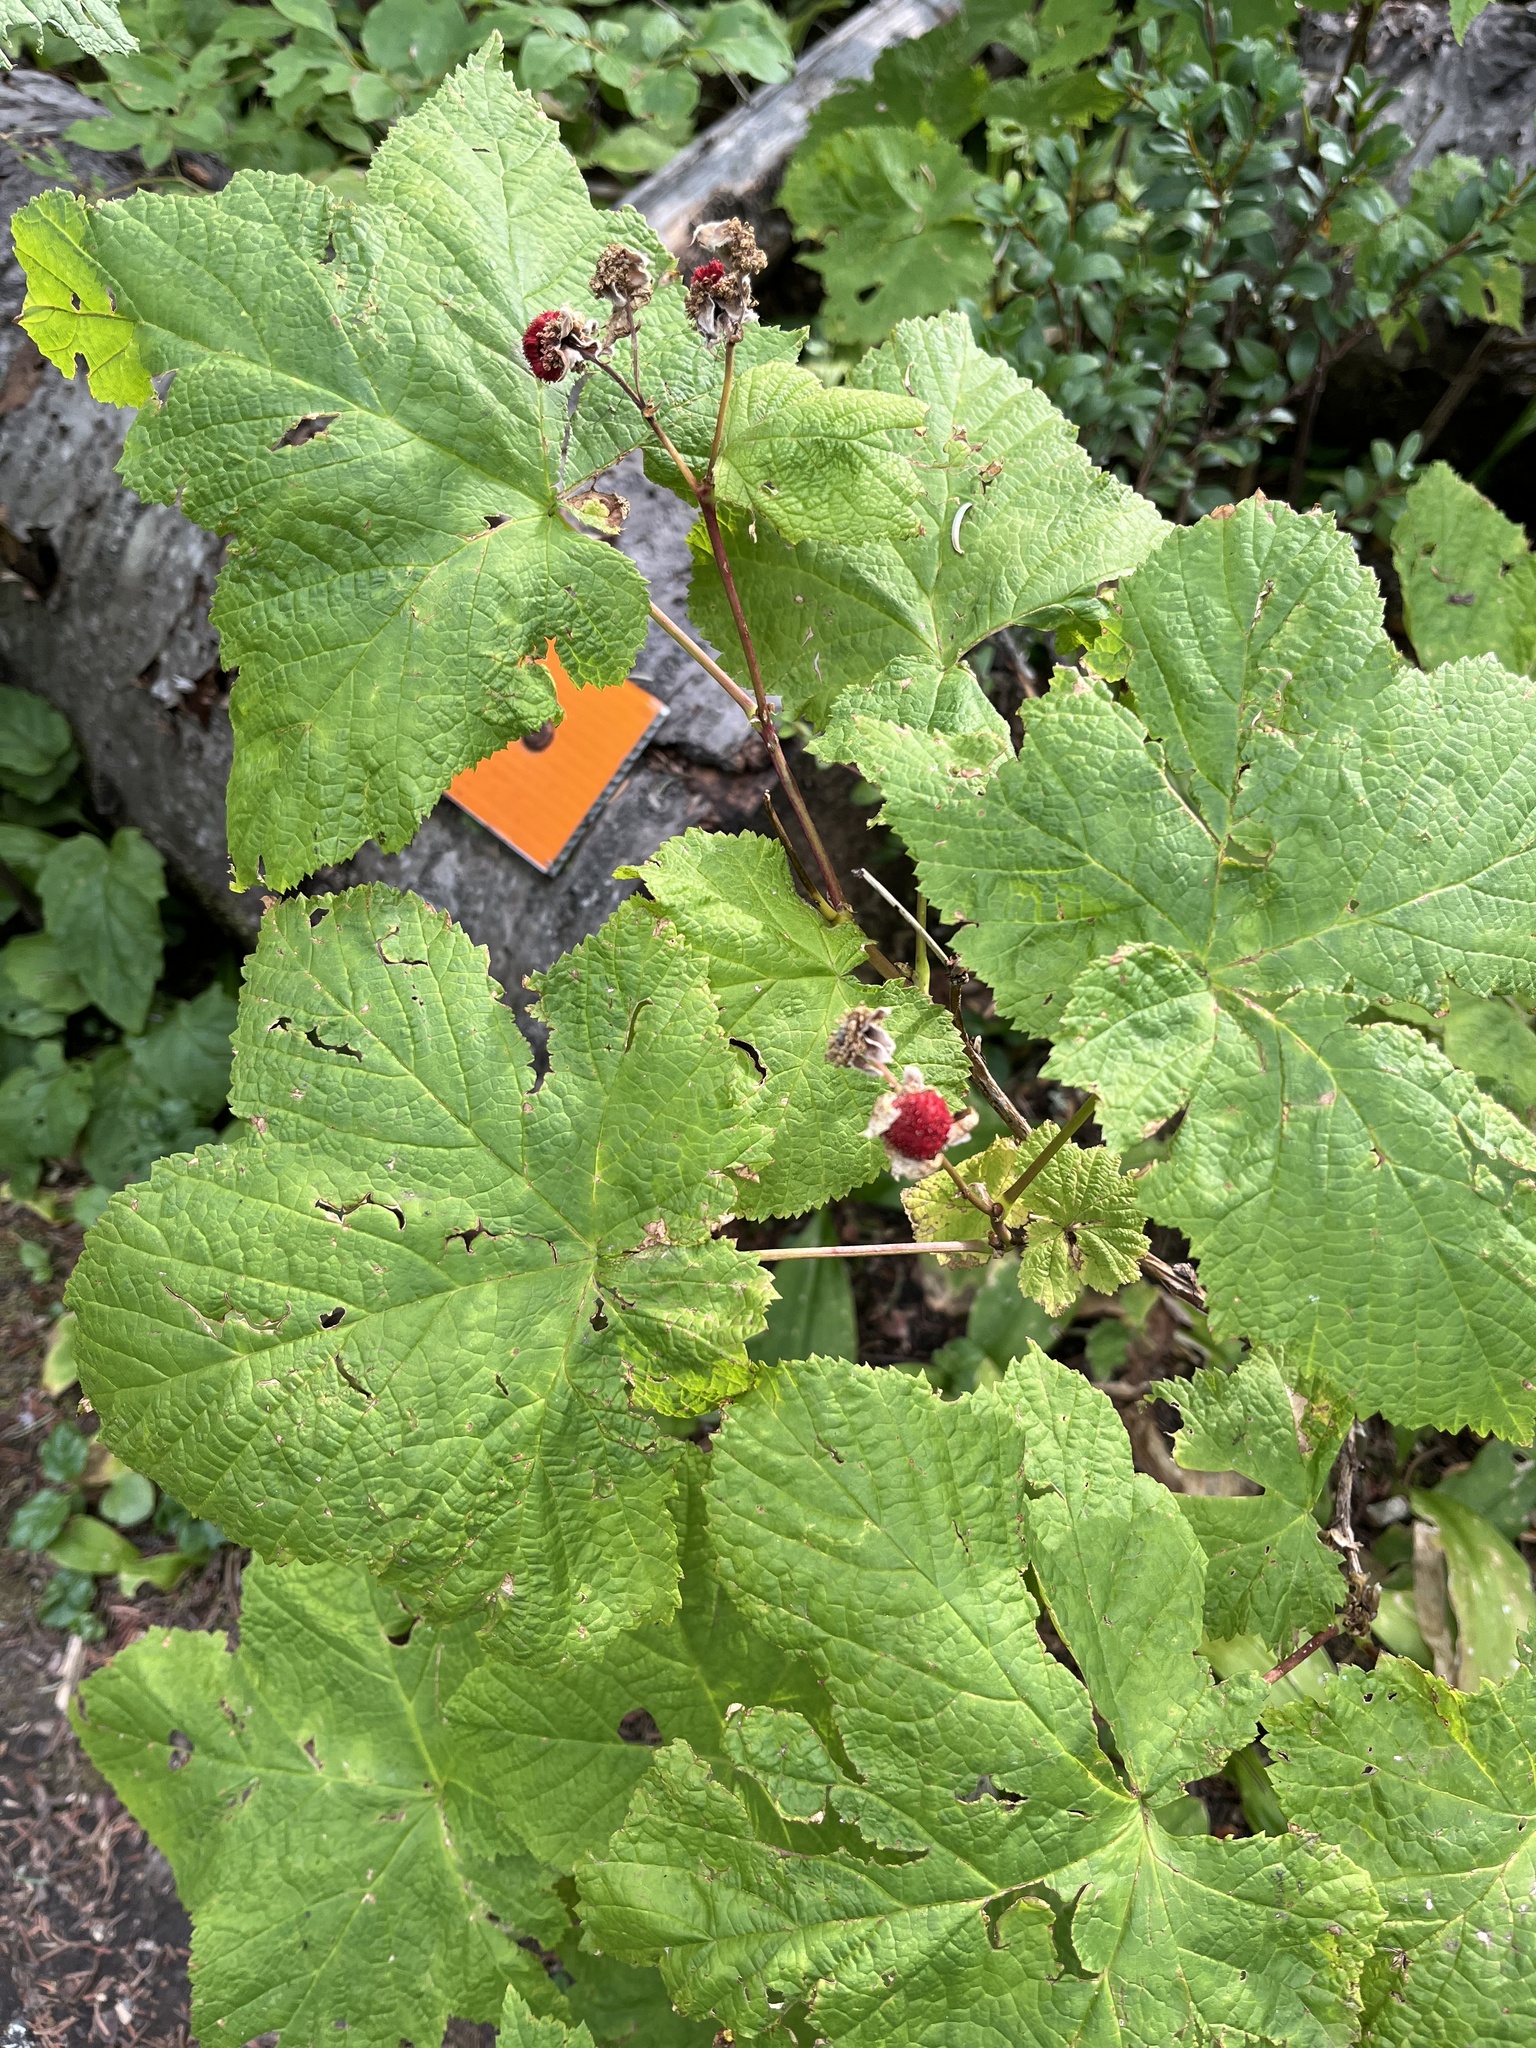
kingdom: Plantae
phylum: Tracheophyta
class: Magnoliopsida
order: Rosales
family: Rosaceae
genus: Rubus
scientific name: Rubus parviflorus
